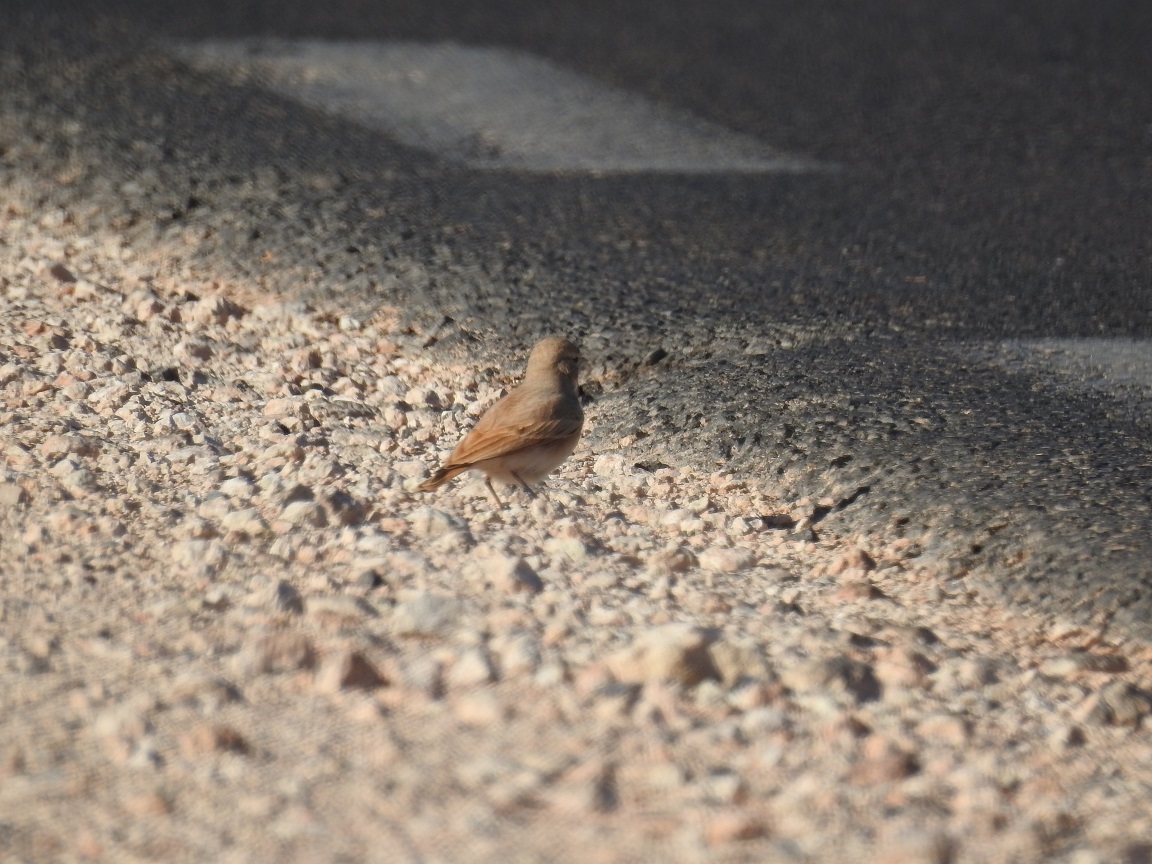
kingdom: Animalia
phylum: Chordata
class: Aves
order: Passeriformes
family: Alaudidae
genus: Ammomanes
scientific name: Ammomanes cinctura
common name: Bar-tailed lark
